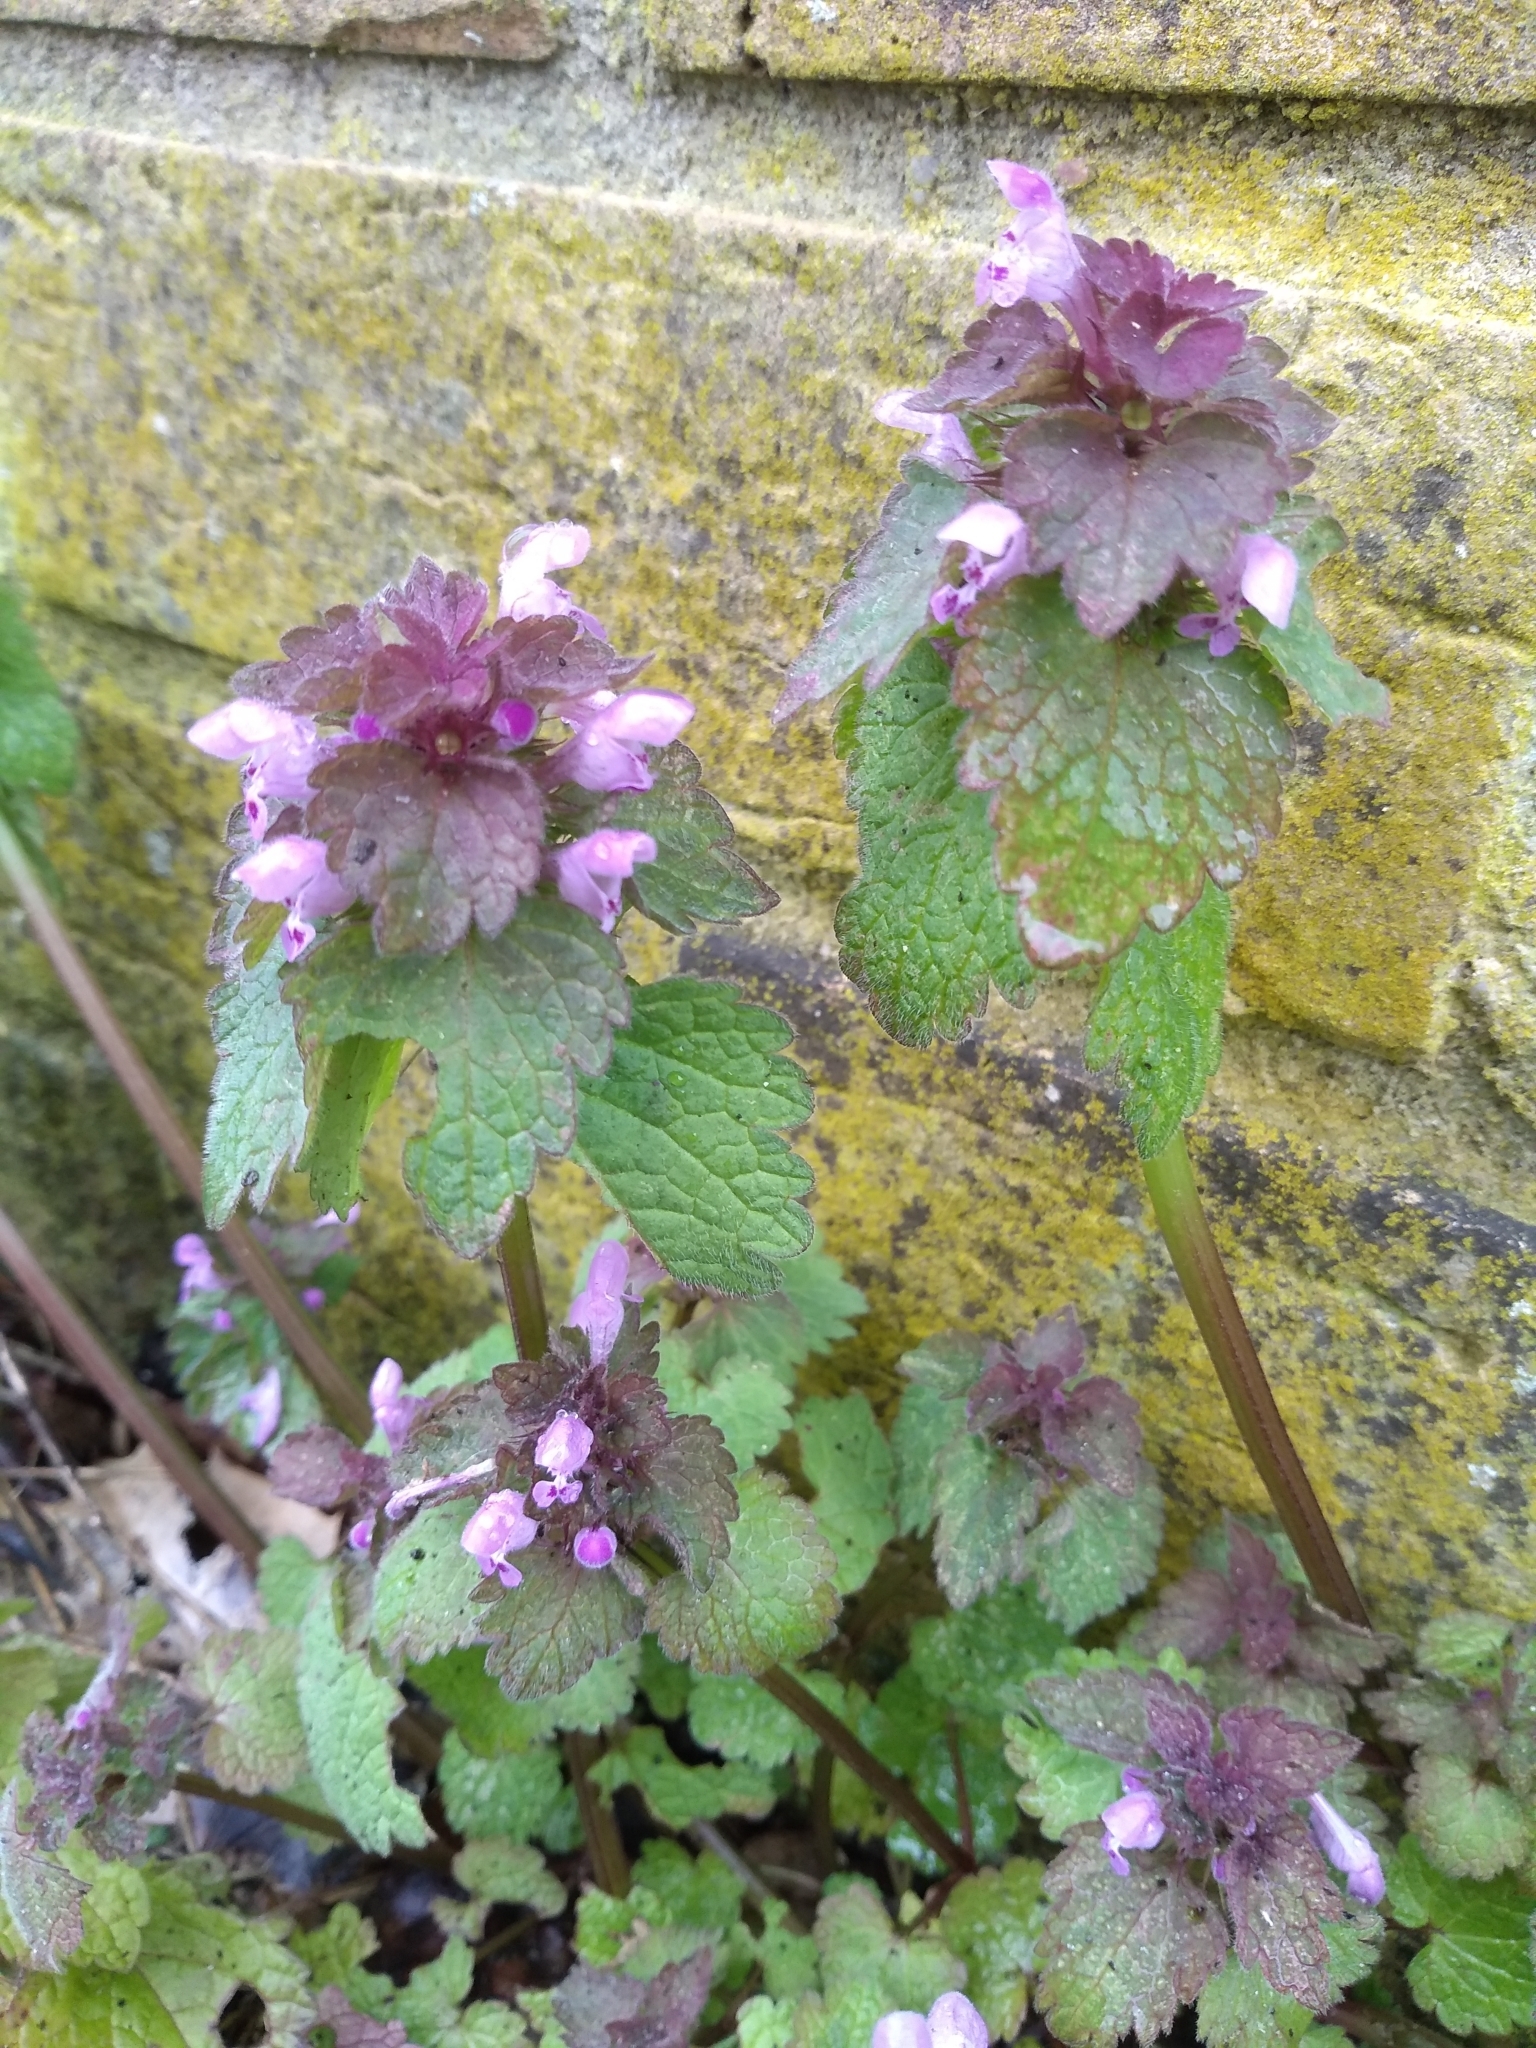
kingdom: Plantae
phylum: Tracheophyta
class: Magnoliopsida
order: Lamiales
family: Lamiaceae
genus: Lamium
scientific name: Lamium purpureum
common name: Red dead-nettle
